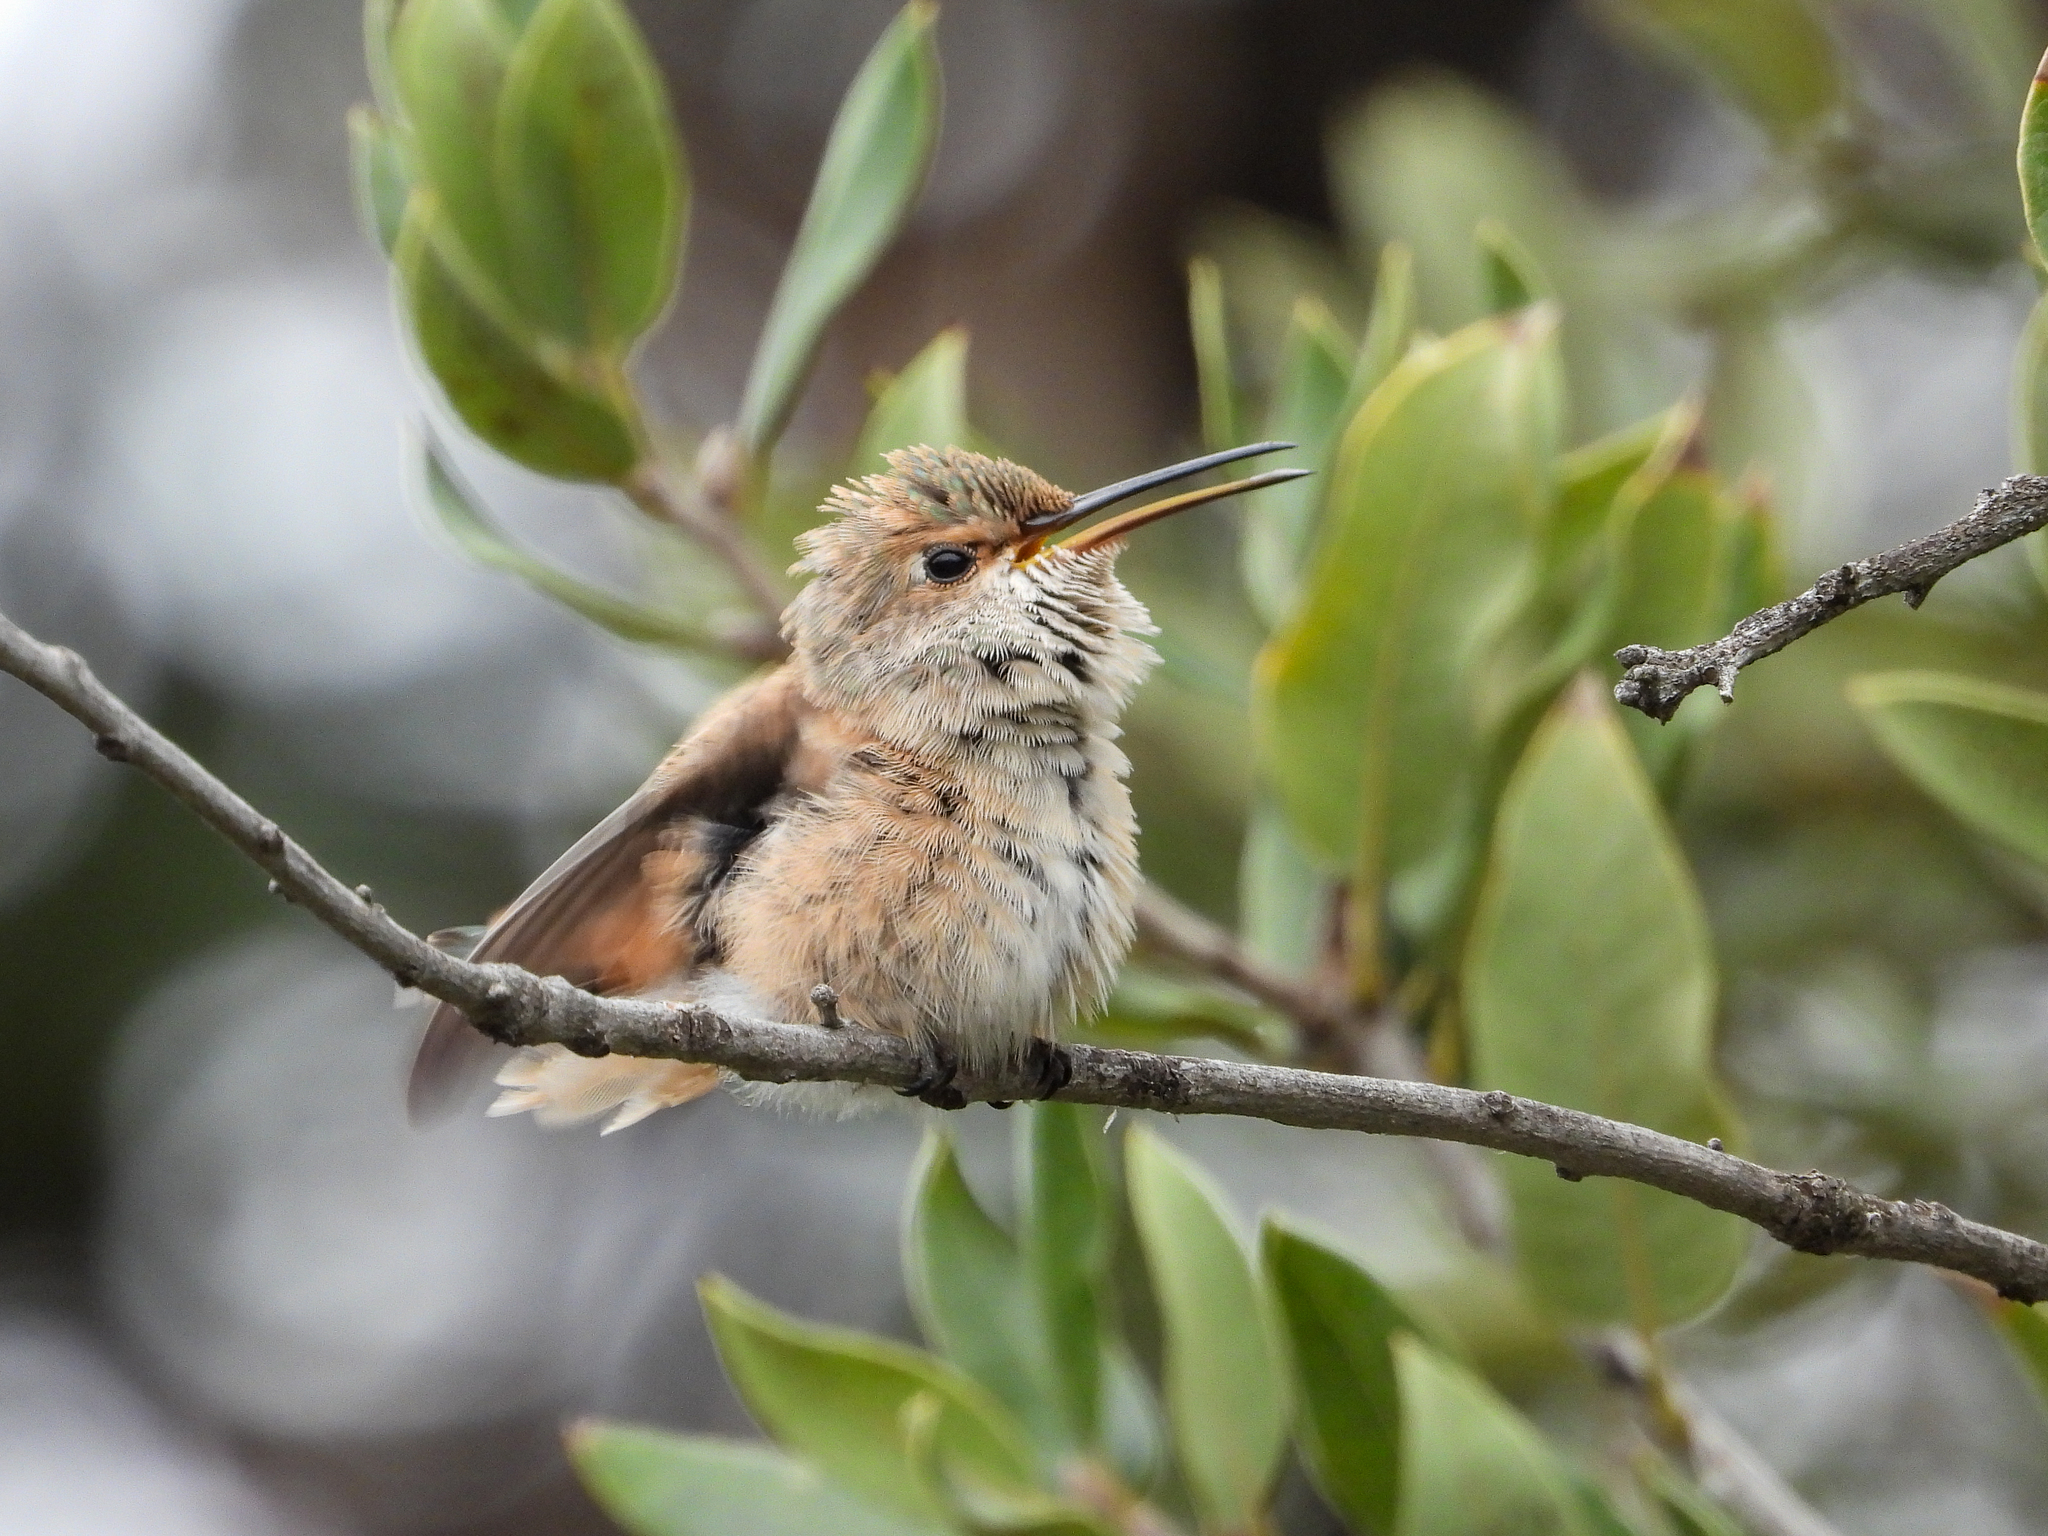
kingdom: Animalia
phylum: Chordata
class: Aves
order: Apodiformes
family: Trochilidae
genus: Selasphorus
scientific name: Selasphorus sasin
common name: Allen's hummingbird
